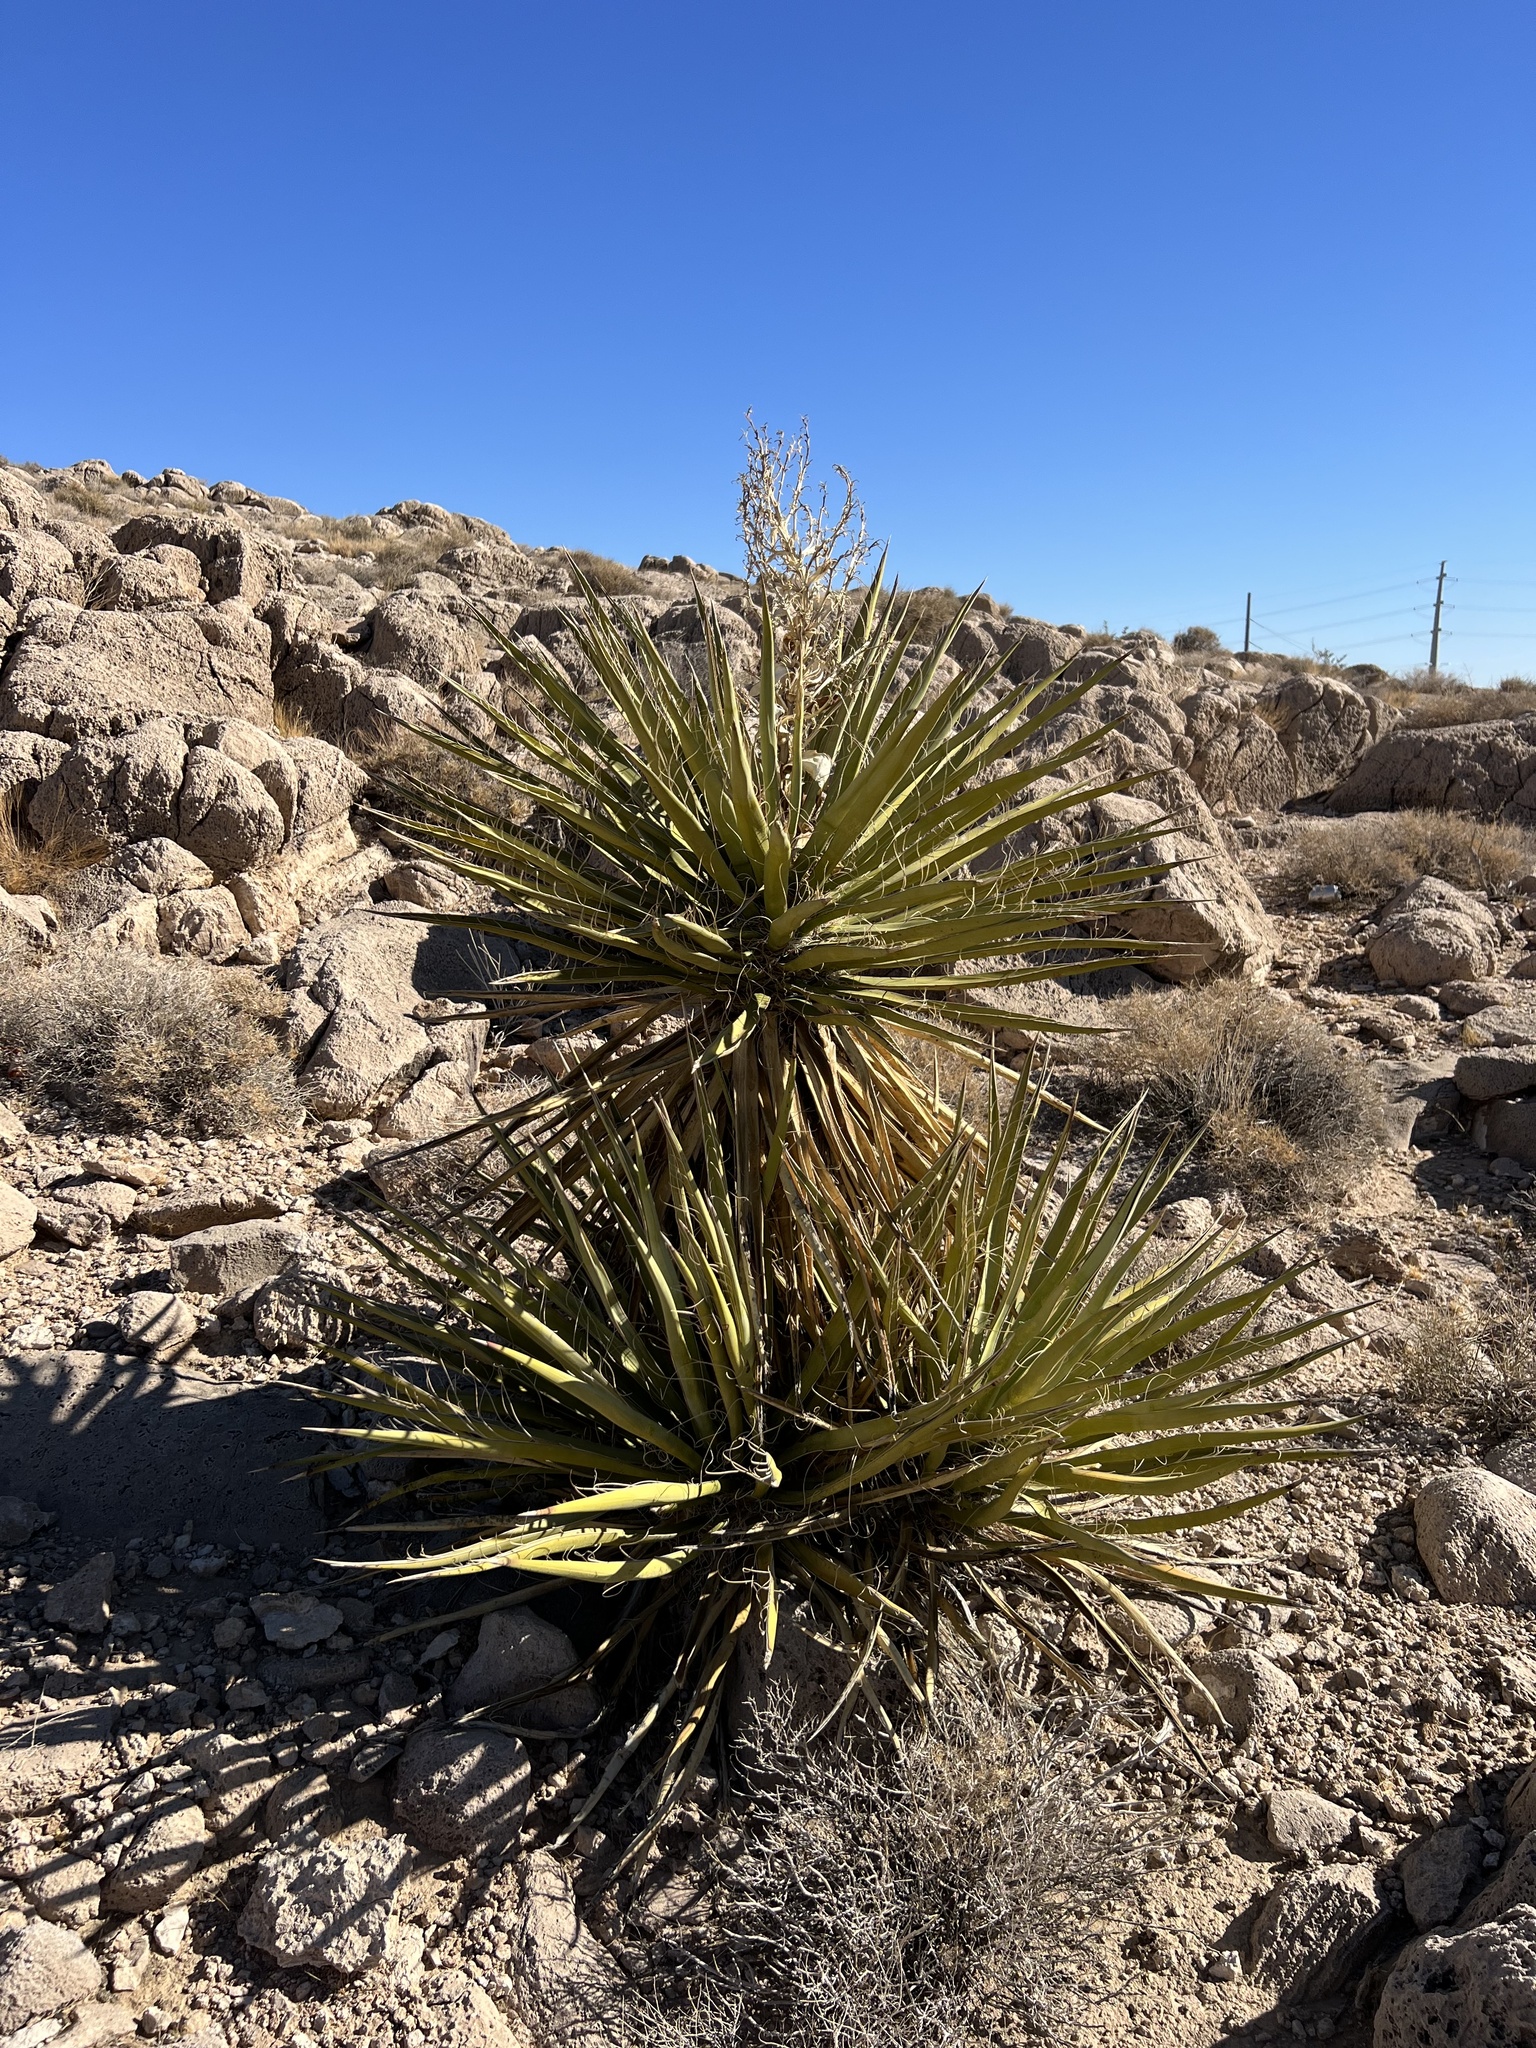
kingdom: Plantae
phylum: Tracheophyta
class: Liliopsida
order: Asparagales
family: Asparagaceae
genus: Yucca
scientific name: Yucca schidigera
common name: Mojave yucca
